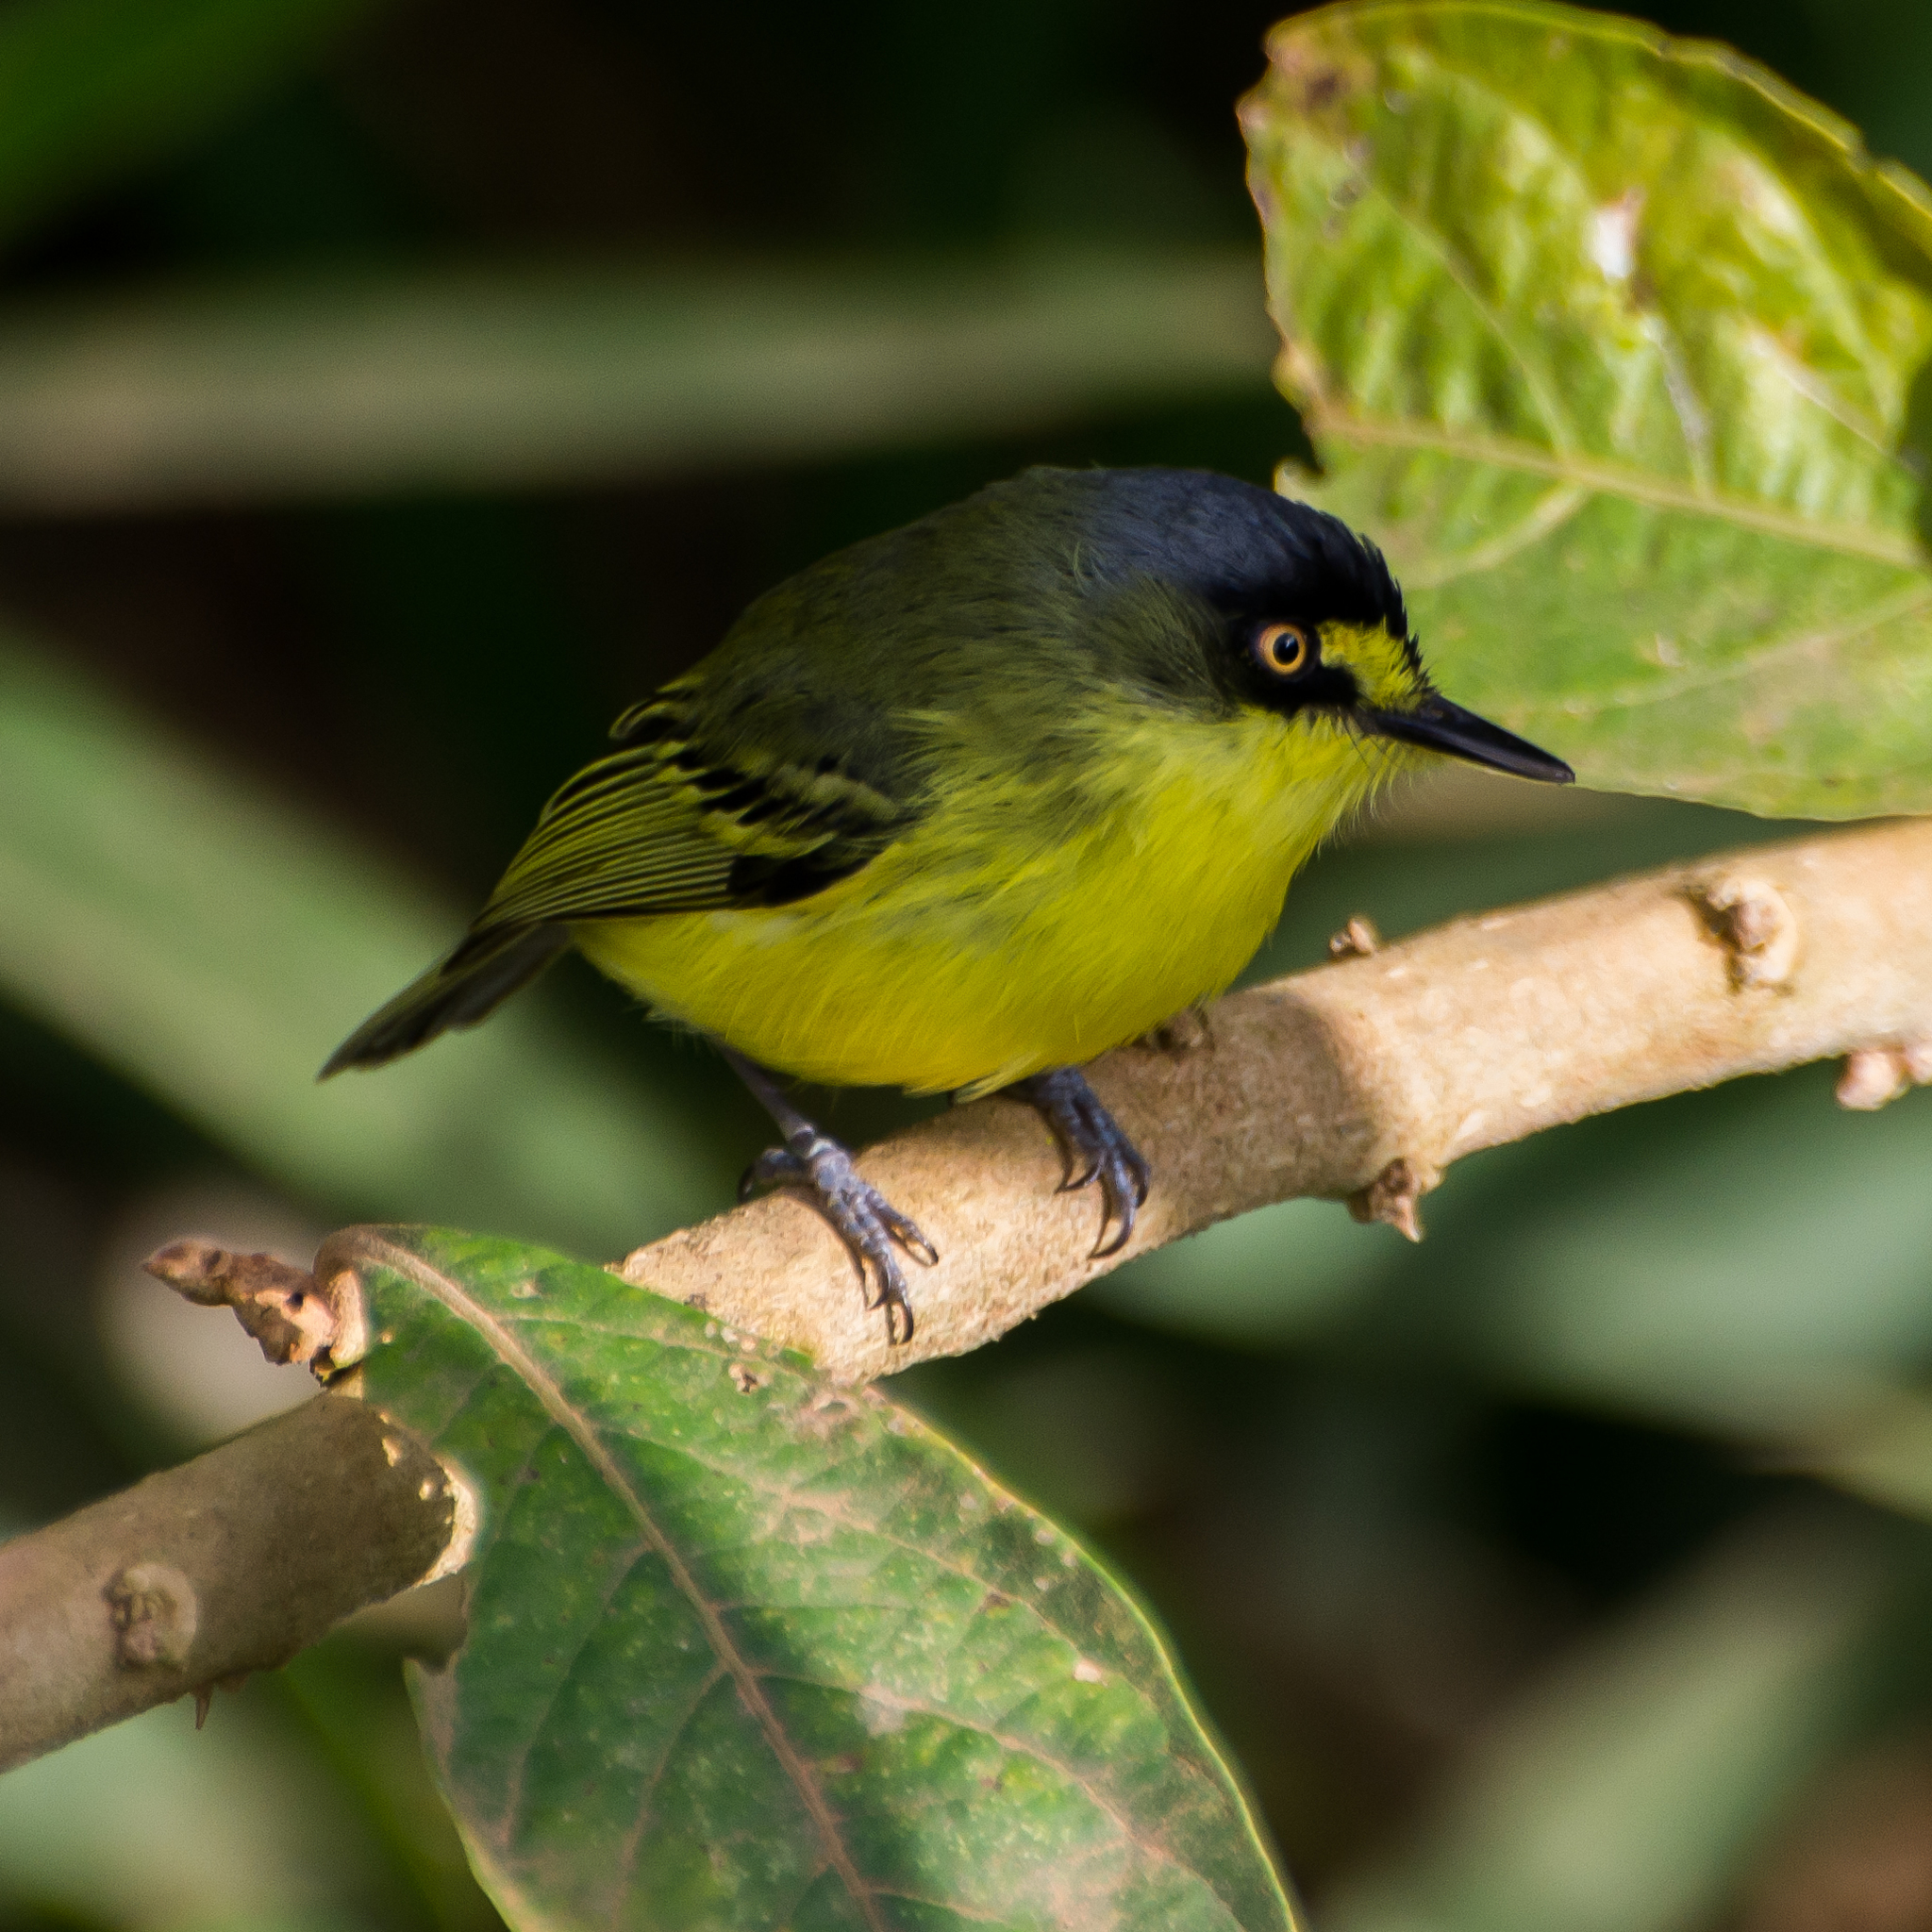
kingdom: Animalia
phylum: Chordata
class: Aves
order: Passeriformes
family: Tyrannidae
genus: Todirostrum
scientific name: Todirostrum poliocephalum
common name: Yellow-lored tody-flycatcher
